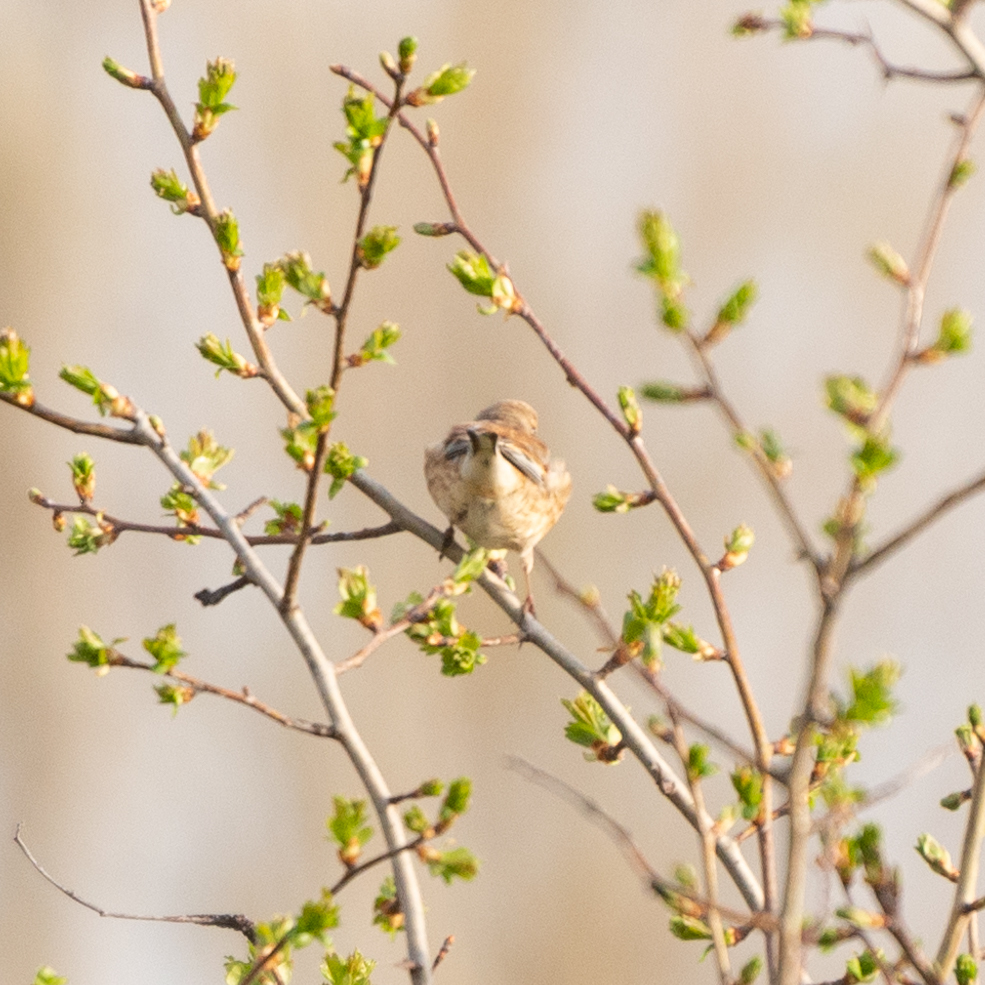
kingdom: Animalia
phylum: Chordata
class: Aves
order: Passeriformes
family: Fringillidae
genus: Linaria
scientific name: Linaria cannabina
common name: Common linnet
